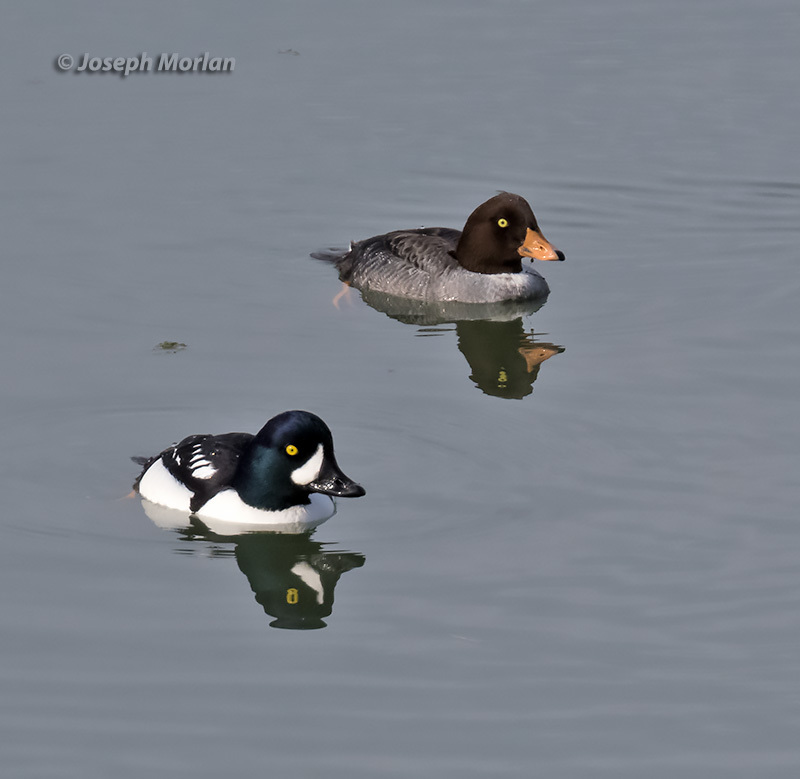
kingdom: Animalia
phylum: Chordata
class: Aves
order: Anseriformes
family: Anatidae
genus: Bucephala
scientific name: Bucephala islandica
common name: Barrow's goldeneye
